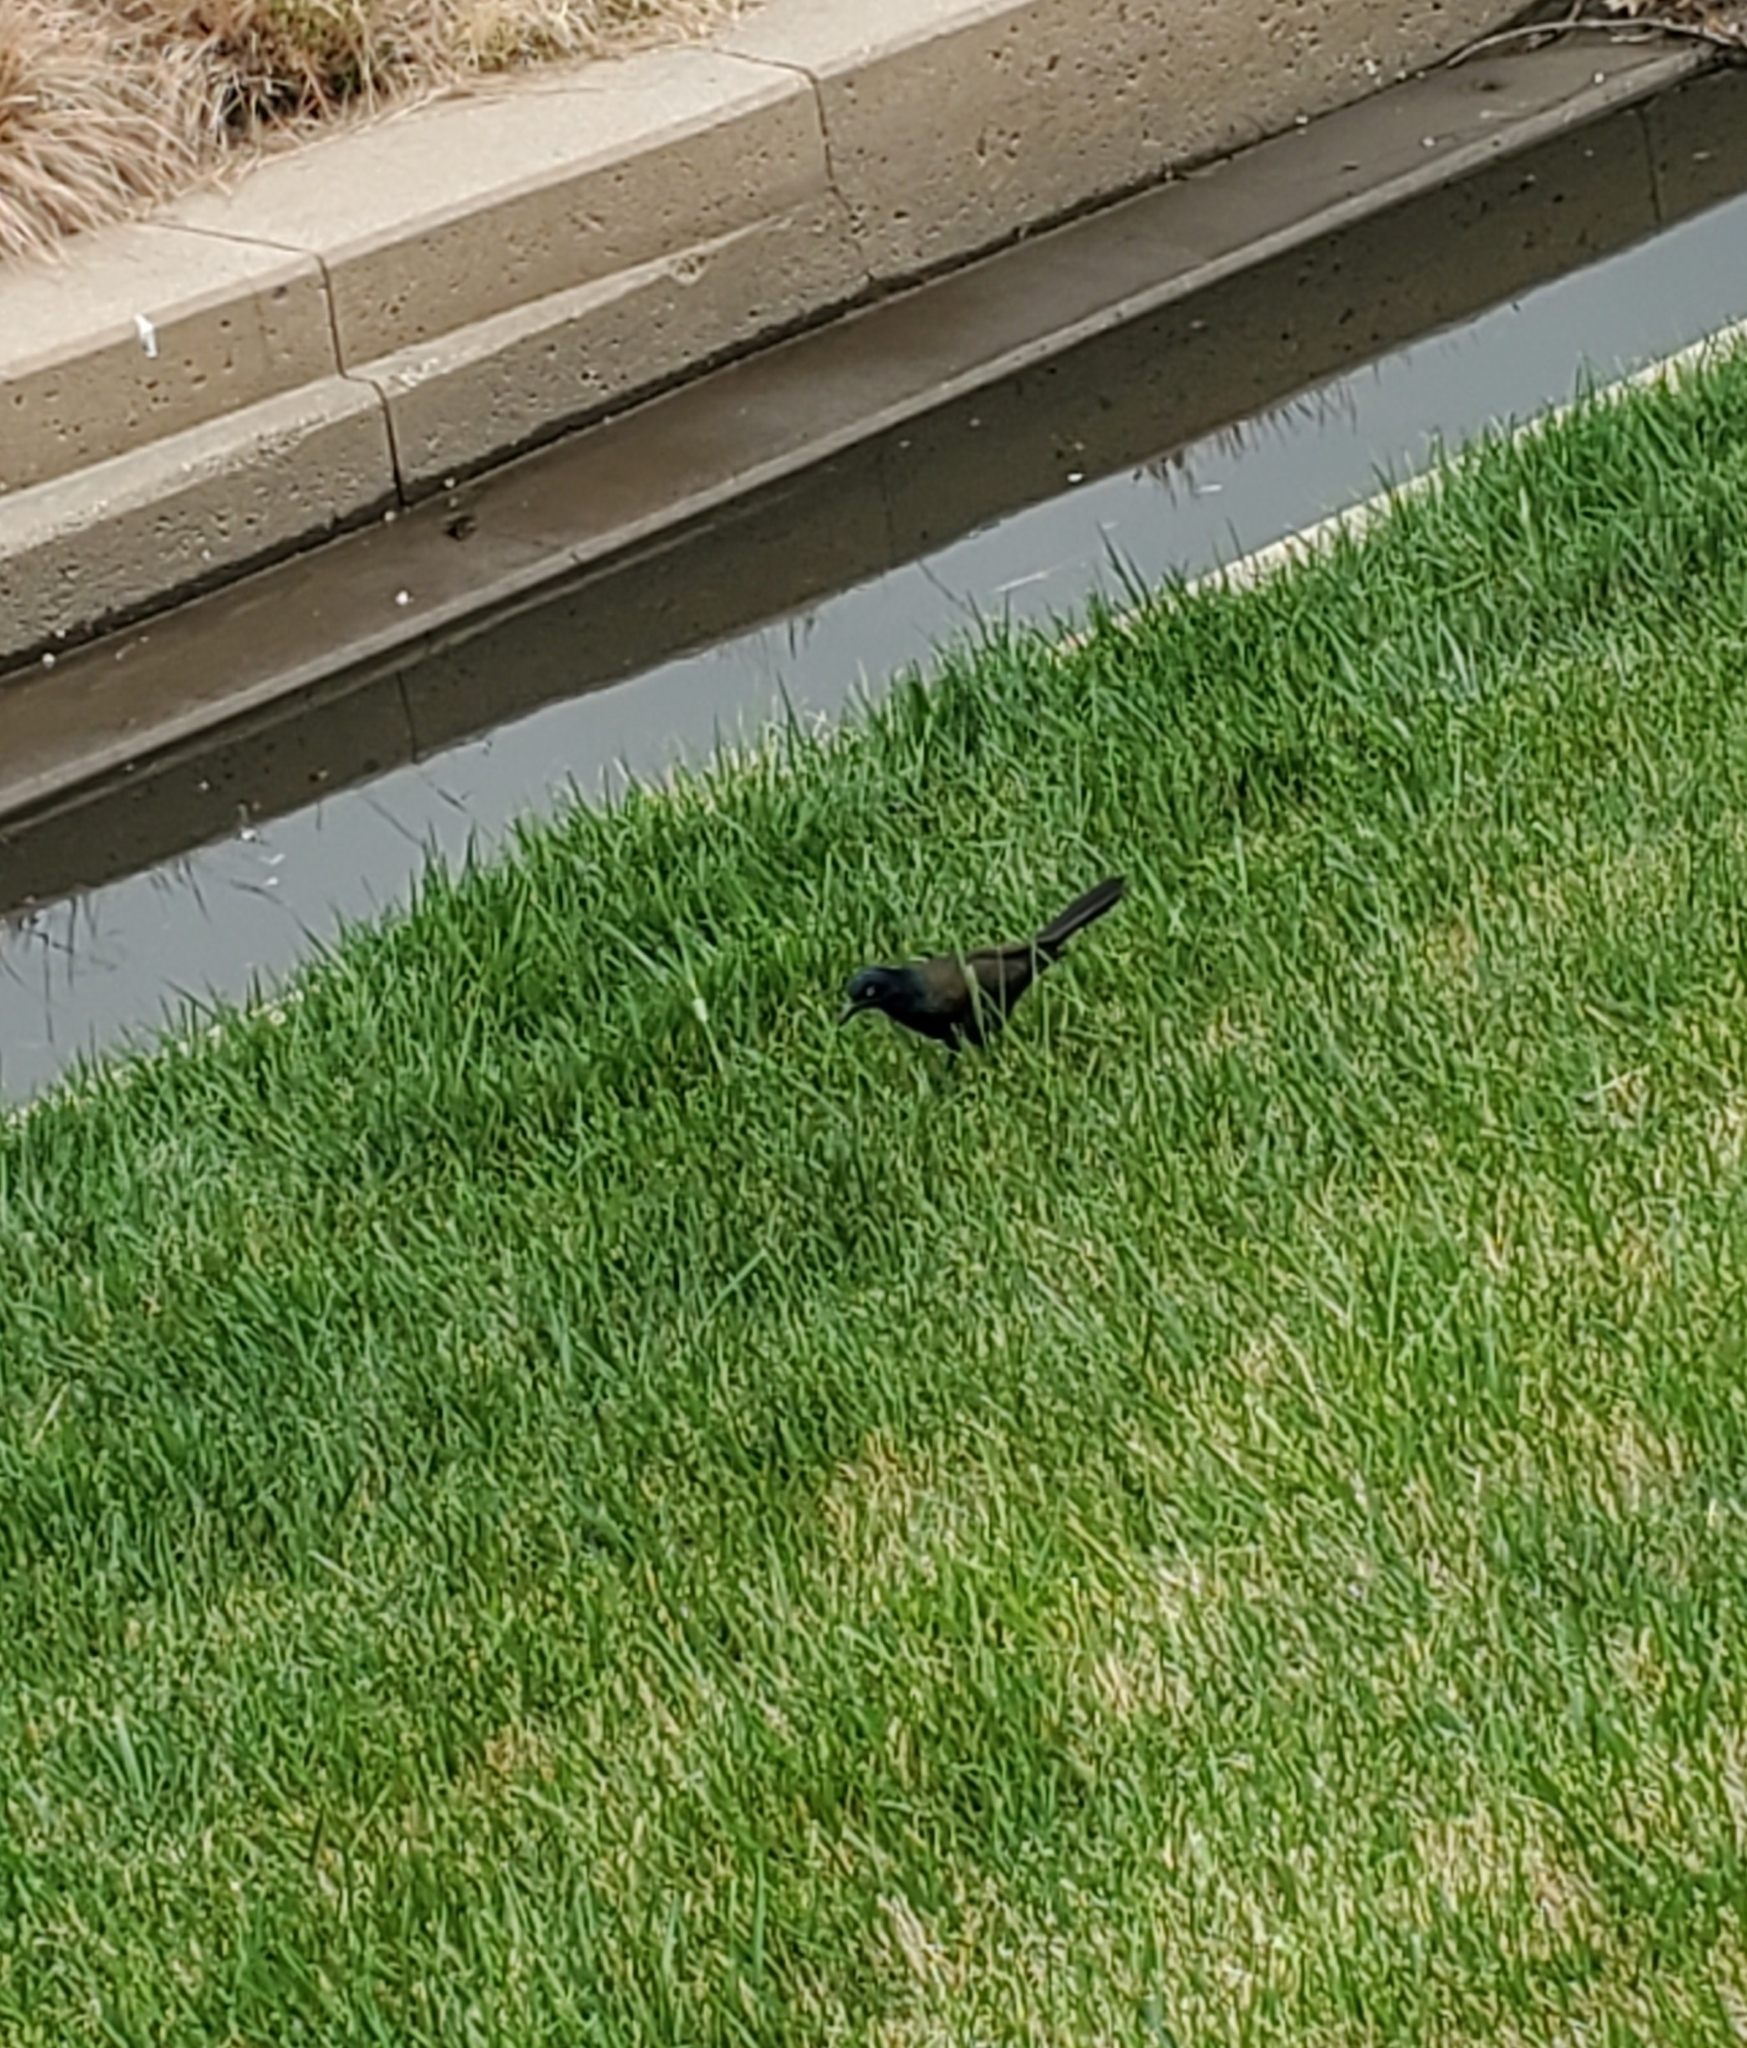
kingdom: Animalia
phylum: Chordata
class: Aves
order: Passeriformes
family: Icteridae
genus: Quiscalus
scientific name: Quiscalus quiscula
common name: Common grackle
